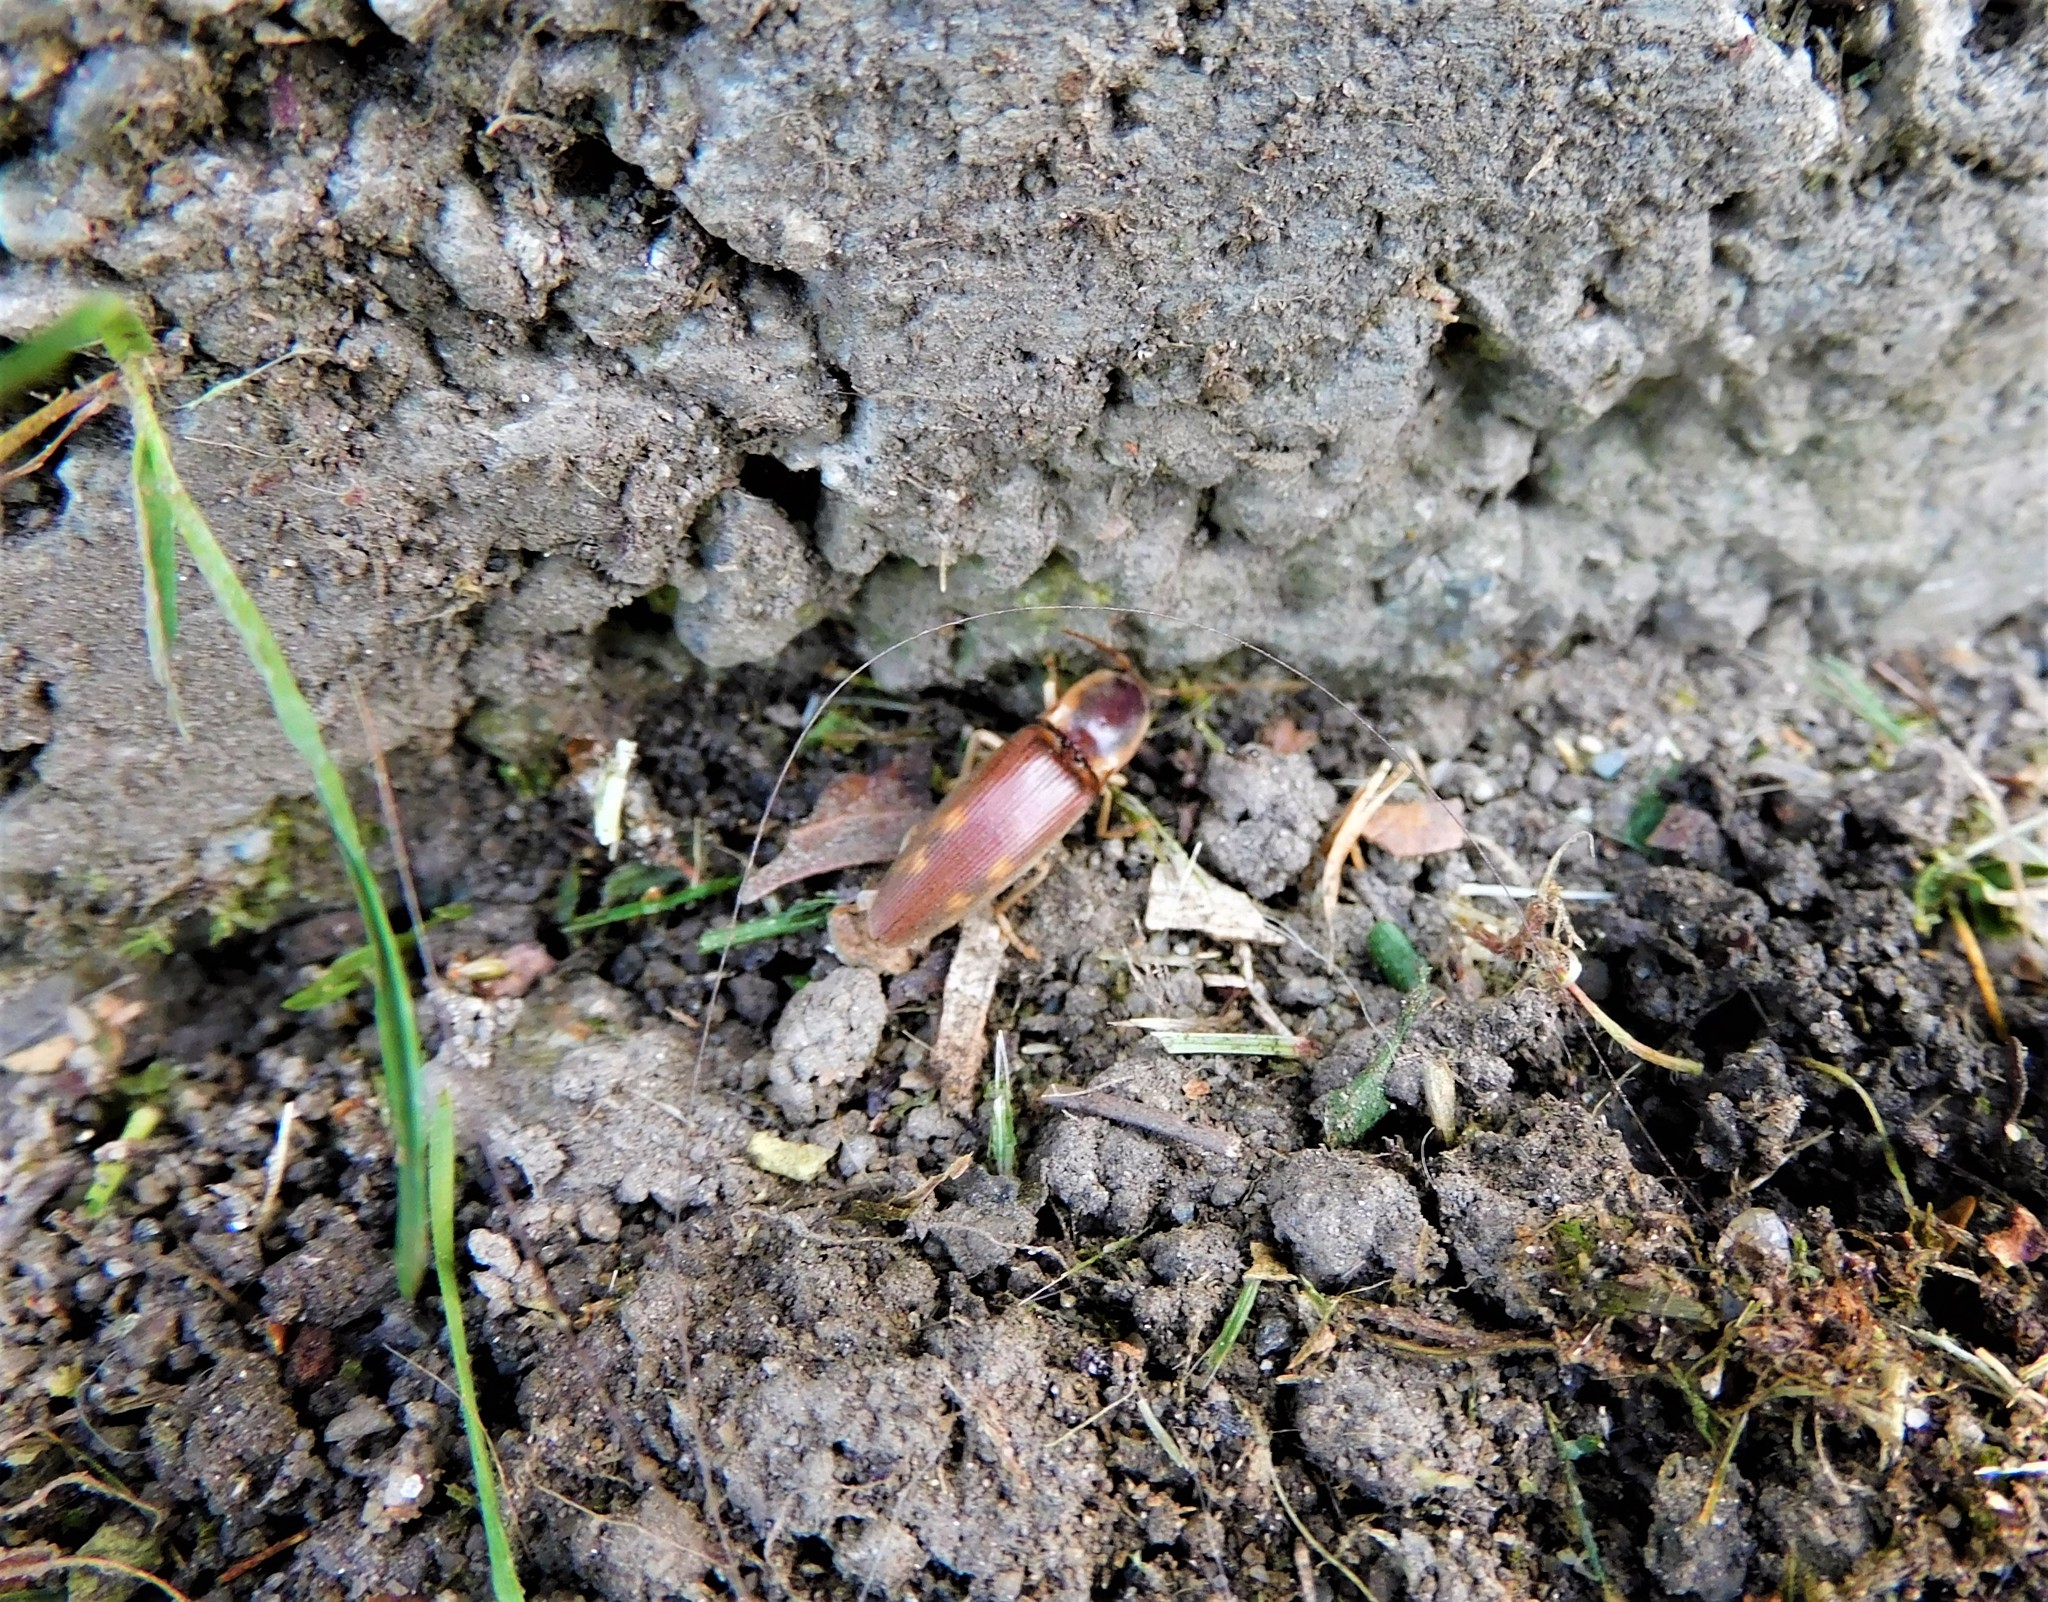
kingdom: Animalia
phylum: Arthropoda
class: Insecta
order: Coleoptera
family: Elateridae
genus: Monocrepidius
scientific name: Monocrepidius
